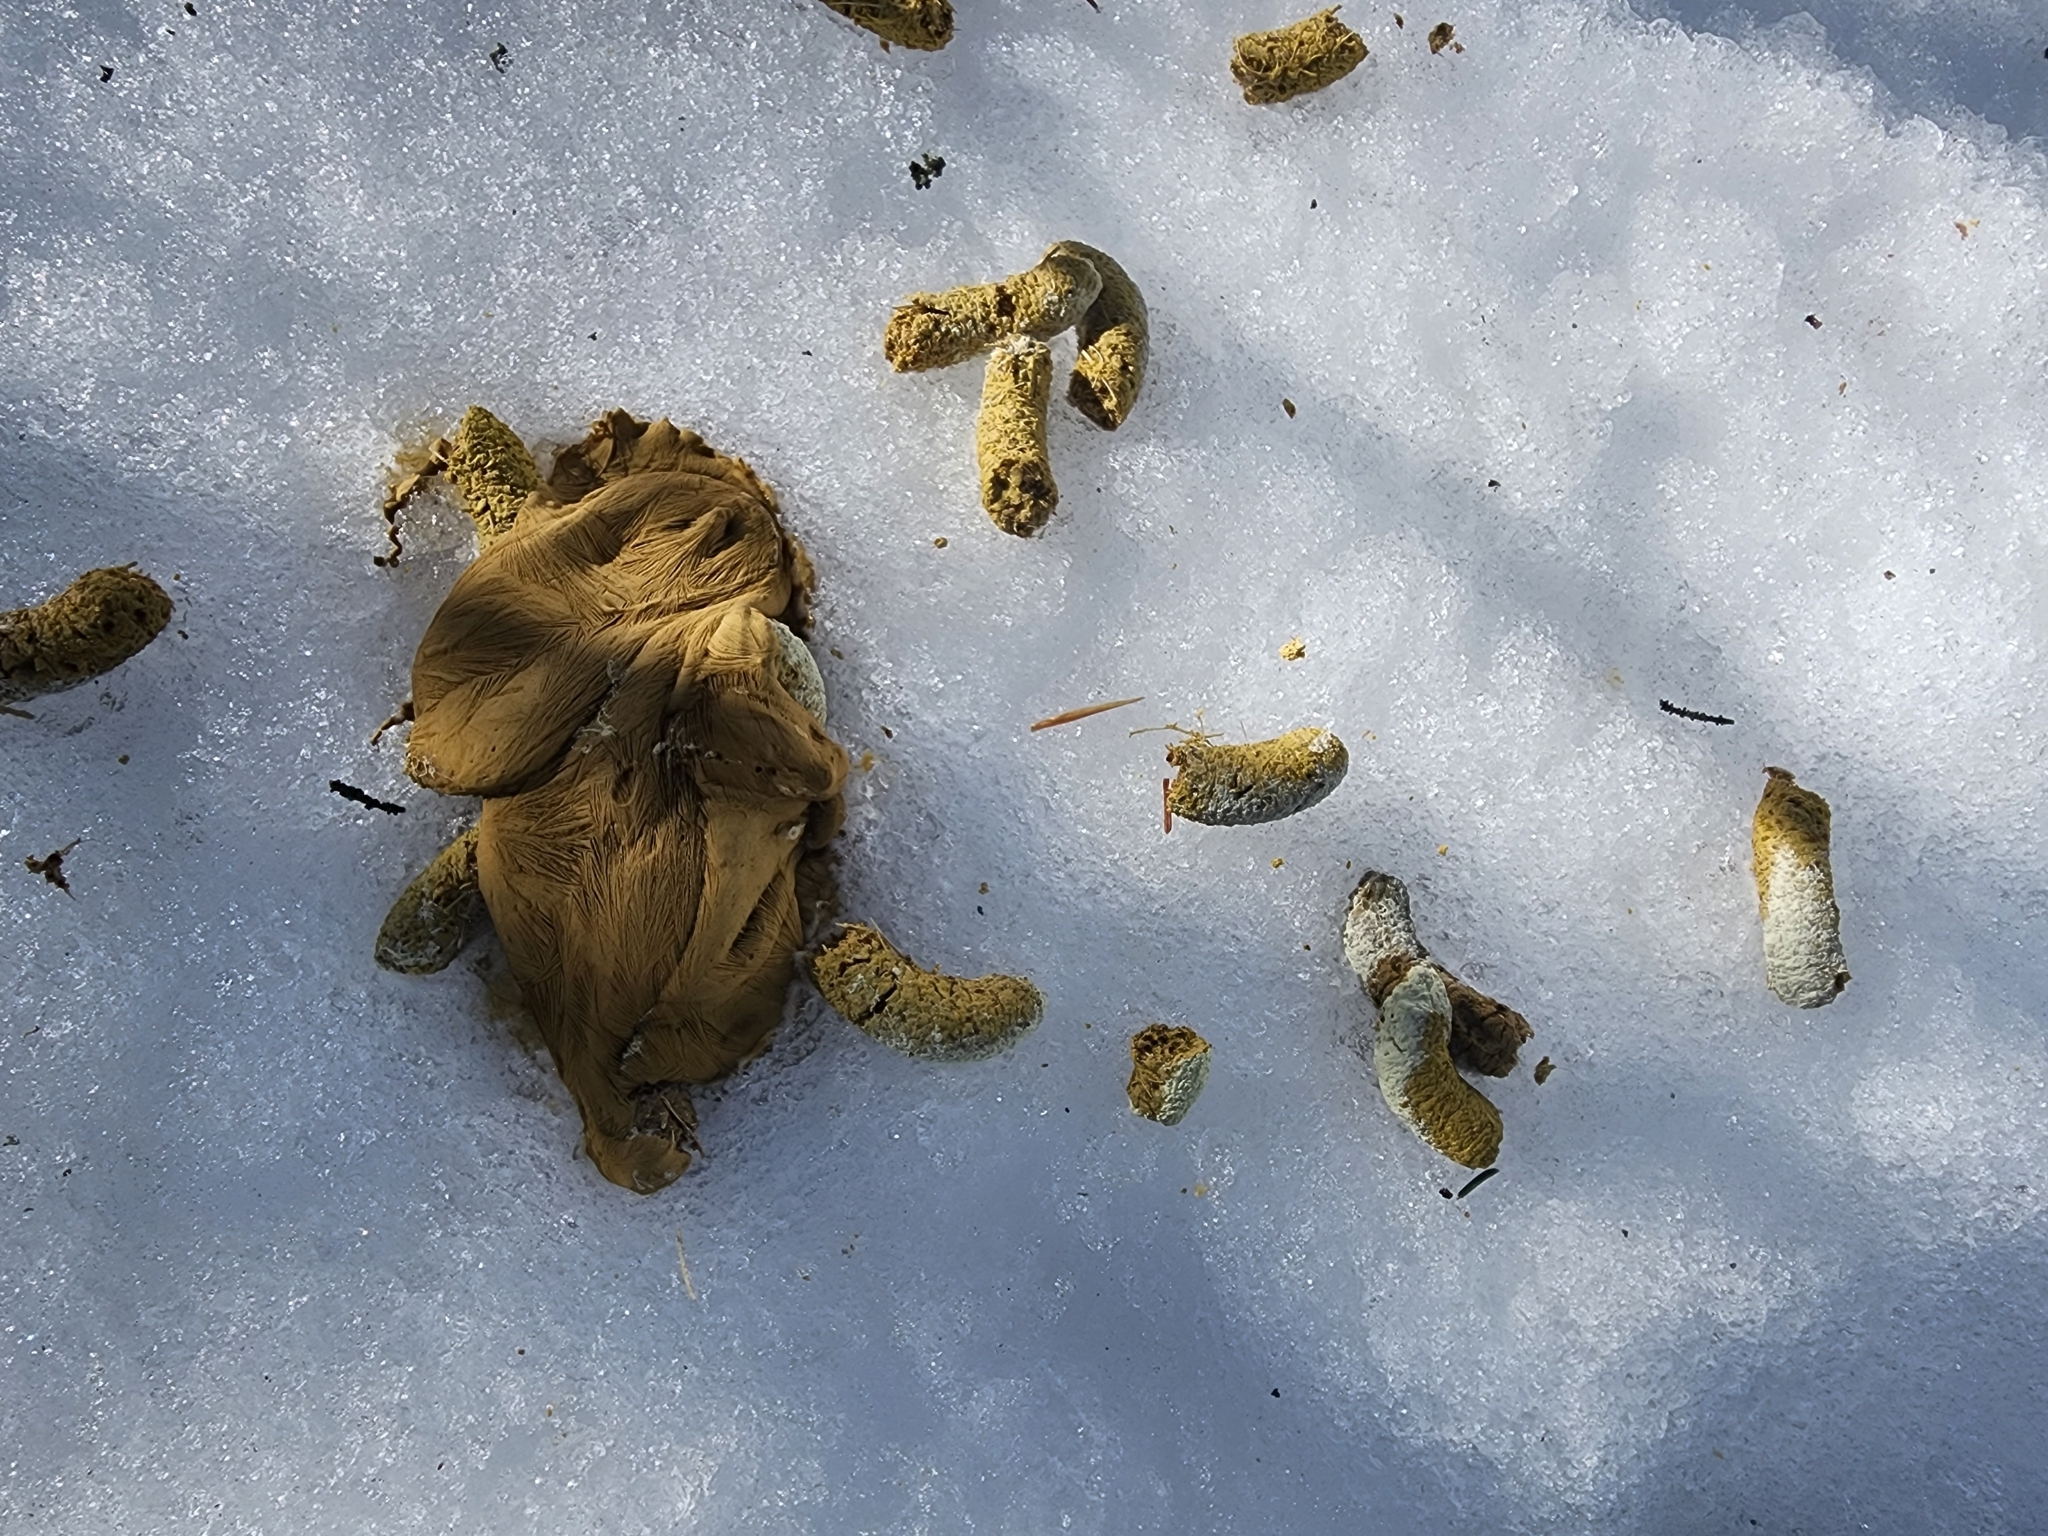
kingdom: Animalia
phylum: Chordata
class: Aves
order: Galliformes
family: Phasianidae
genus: Bonasa
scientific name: Bonasa umbellus
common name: Ruffed grouse
